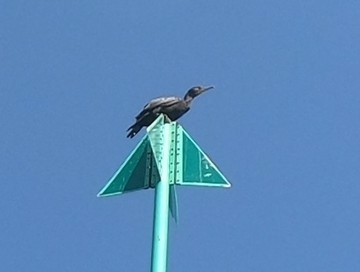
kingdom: Animalia
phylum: Chordata
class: Aves
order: Suliformes
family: Phalacrocoracidae
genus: Phalacrocorax
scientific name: Phalacrocorax carbo
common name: Great cormorant
